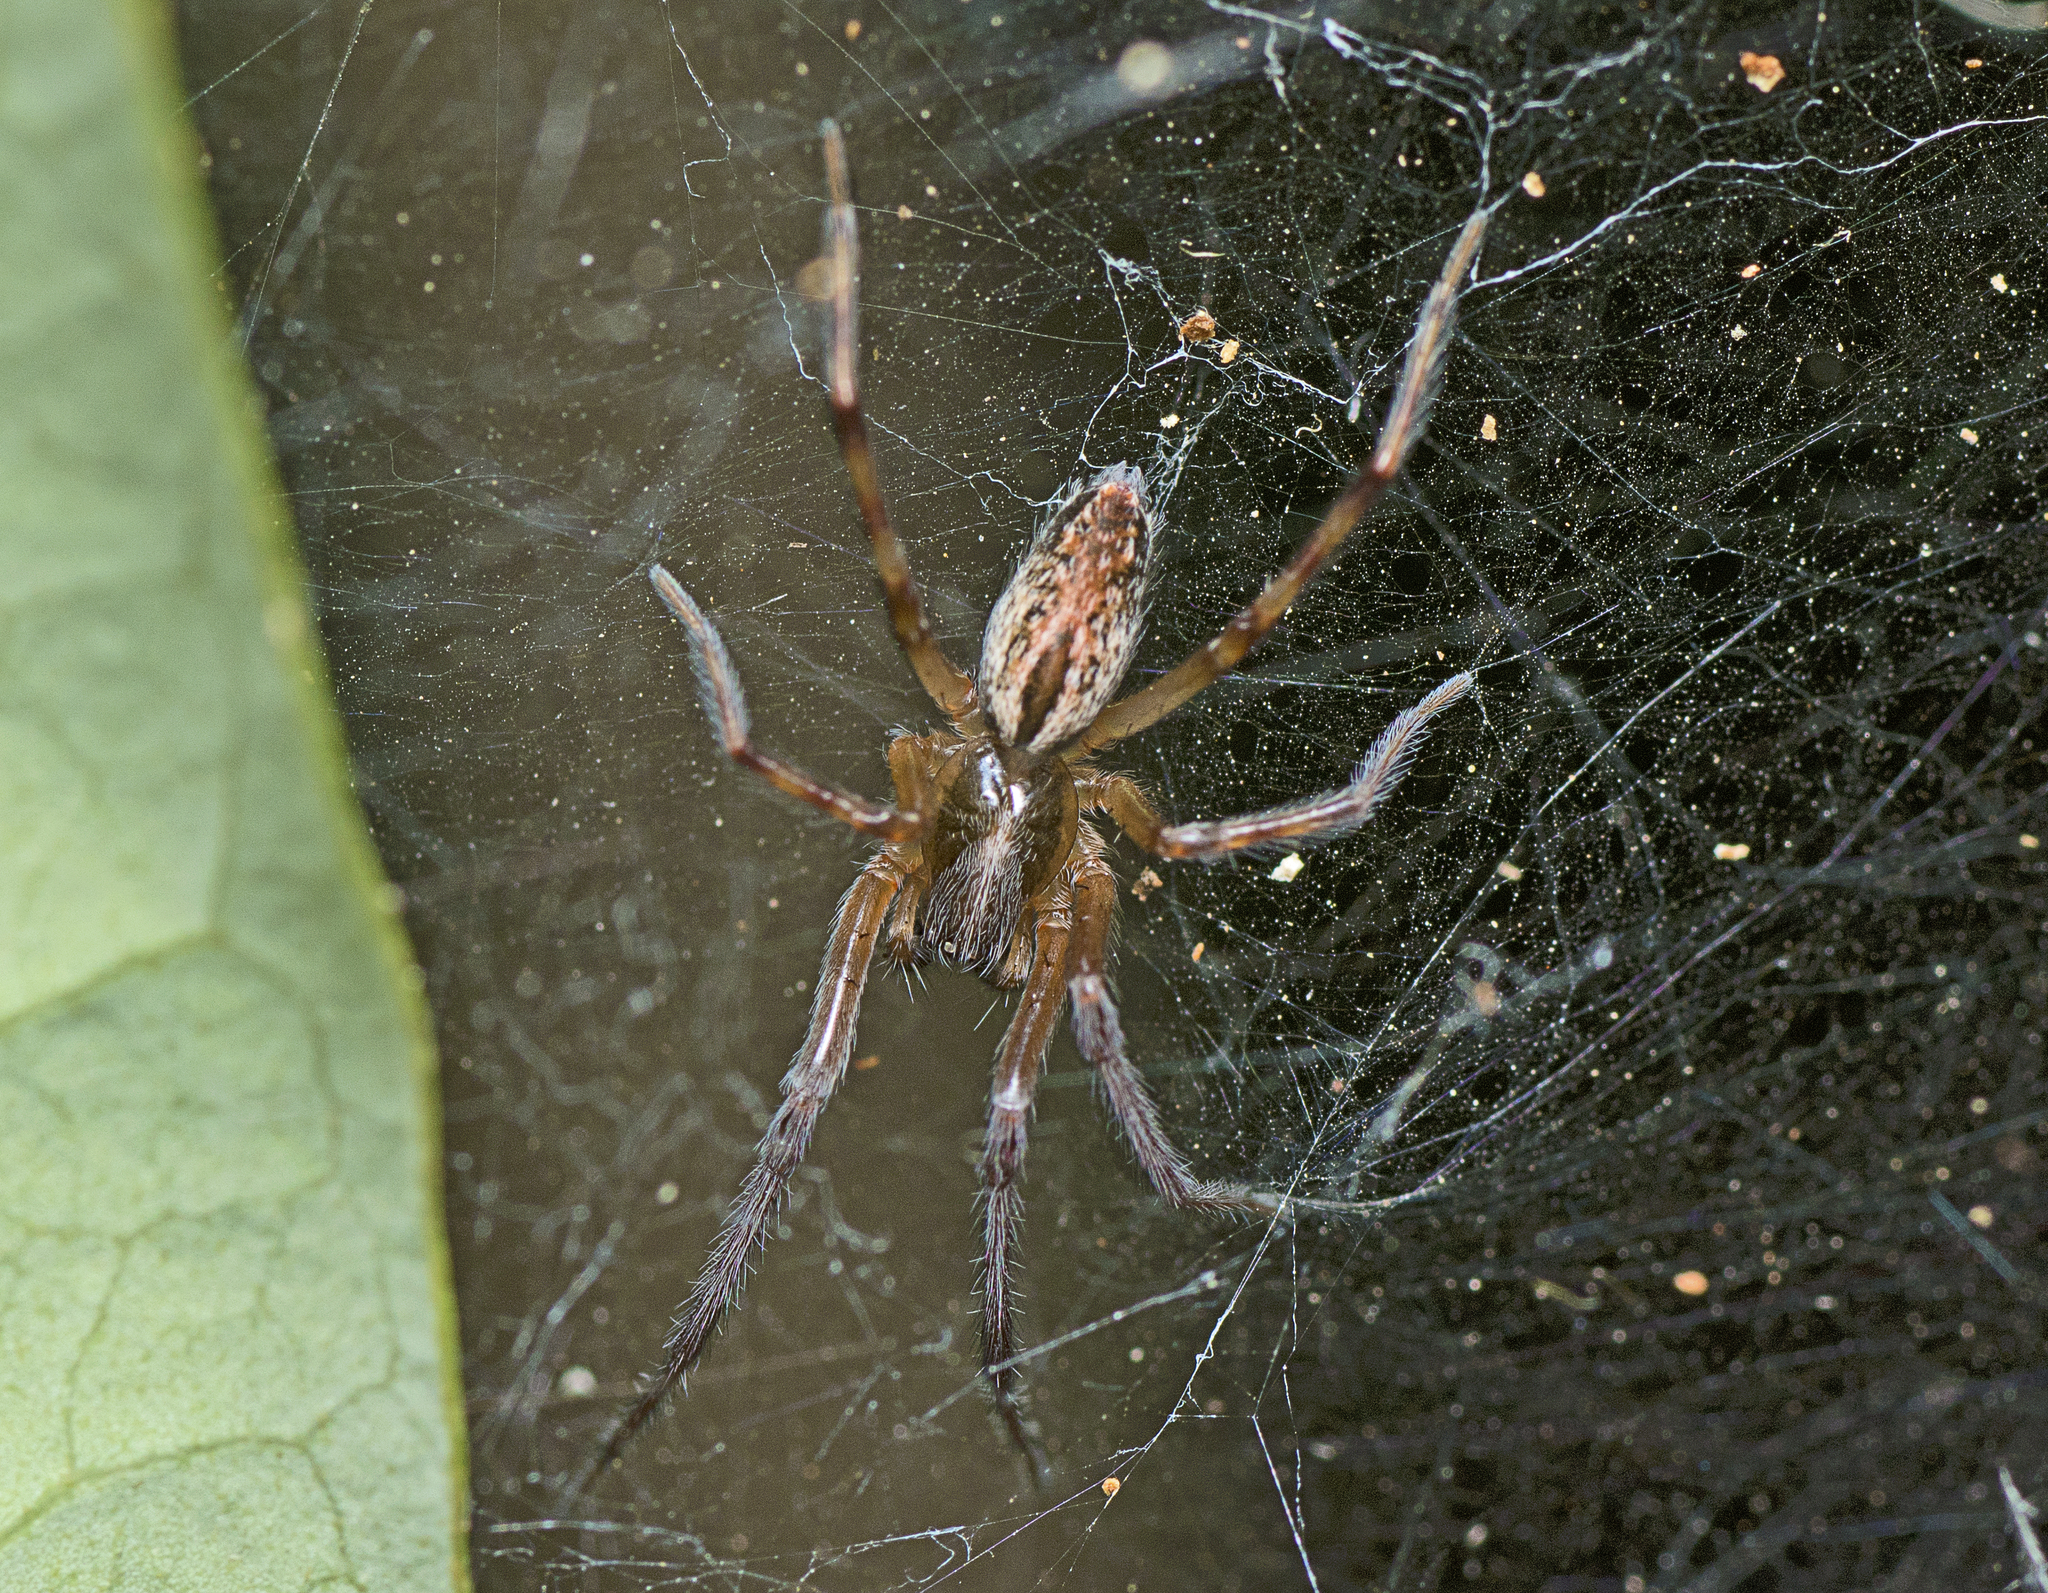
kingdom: Animalia
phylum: Arthropoda
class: Arachnida
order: Araneae
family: Desidae
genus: Badumna
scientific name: Badumna longinqua
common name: Gray house spider
